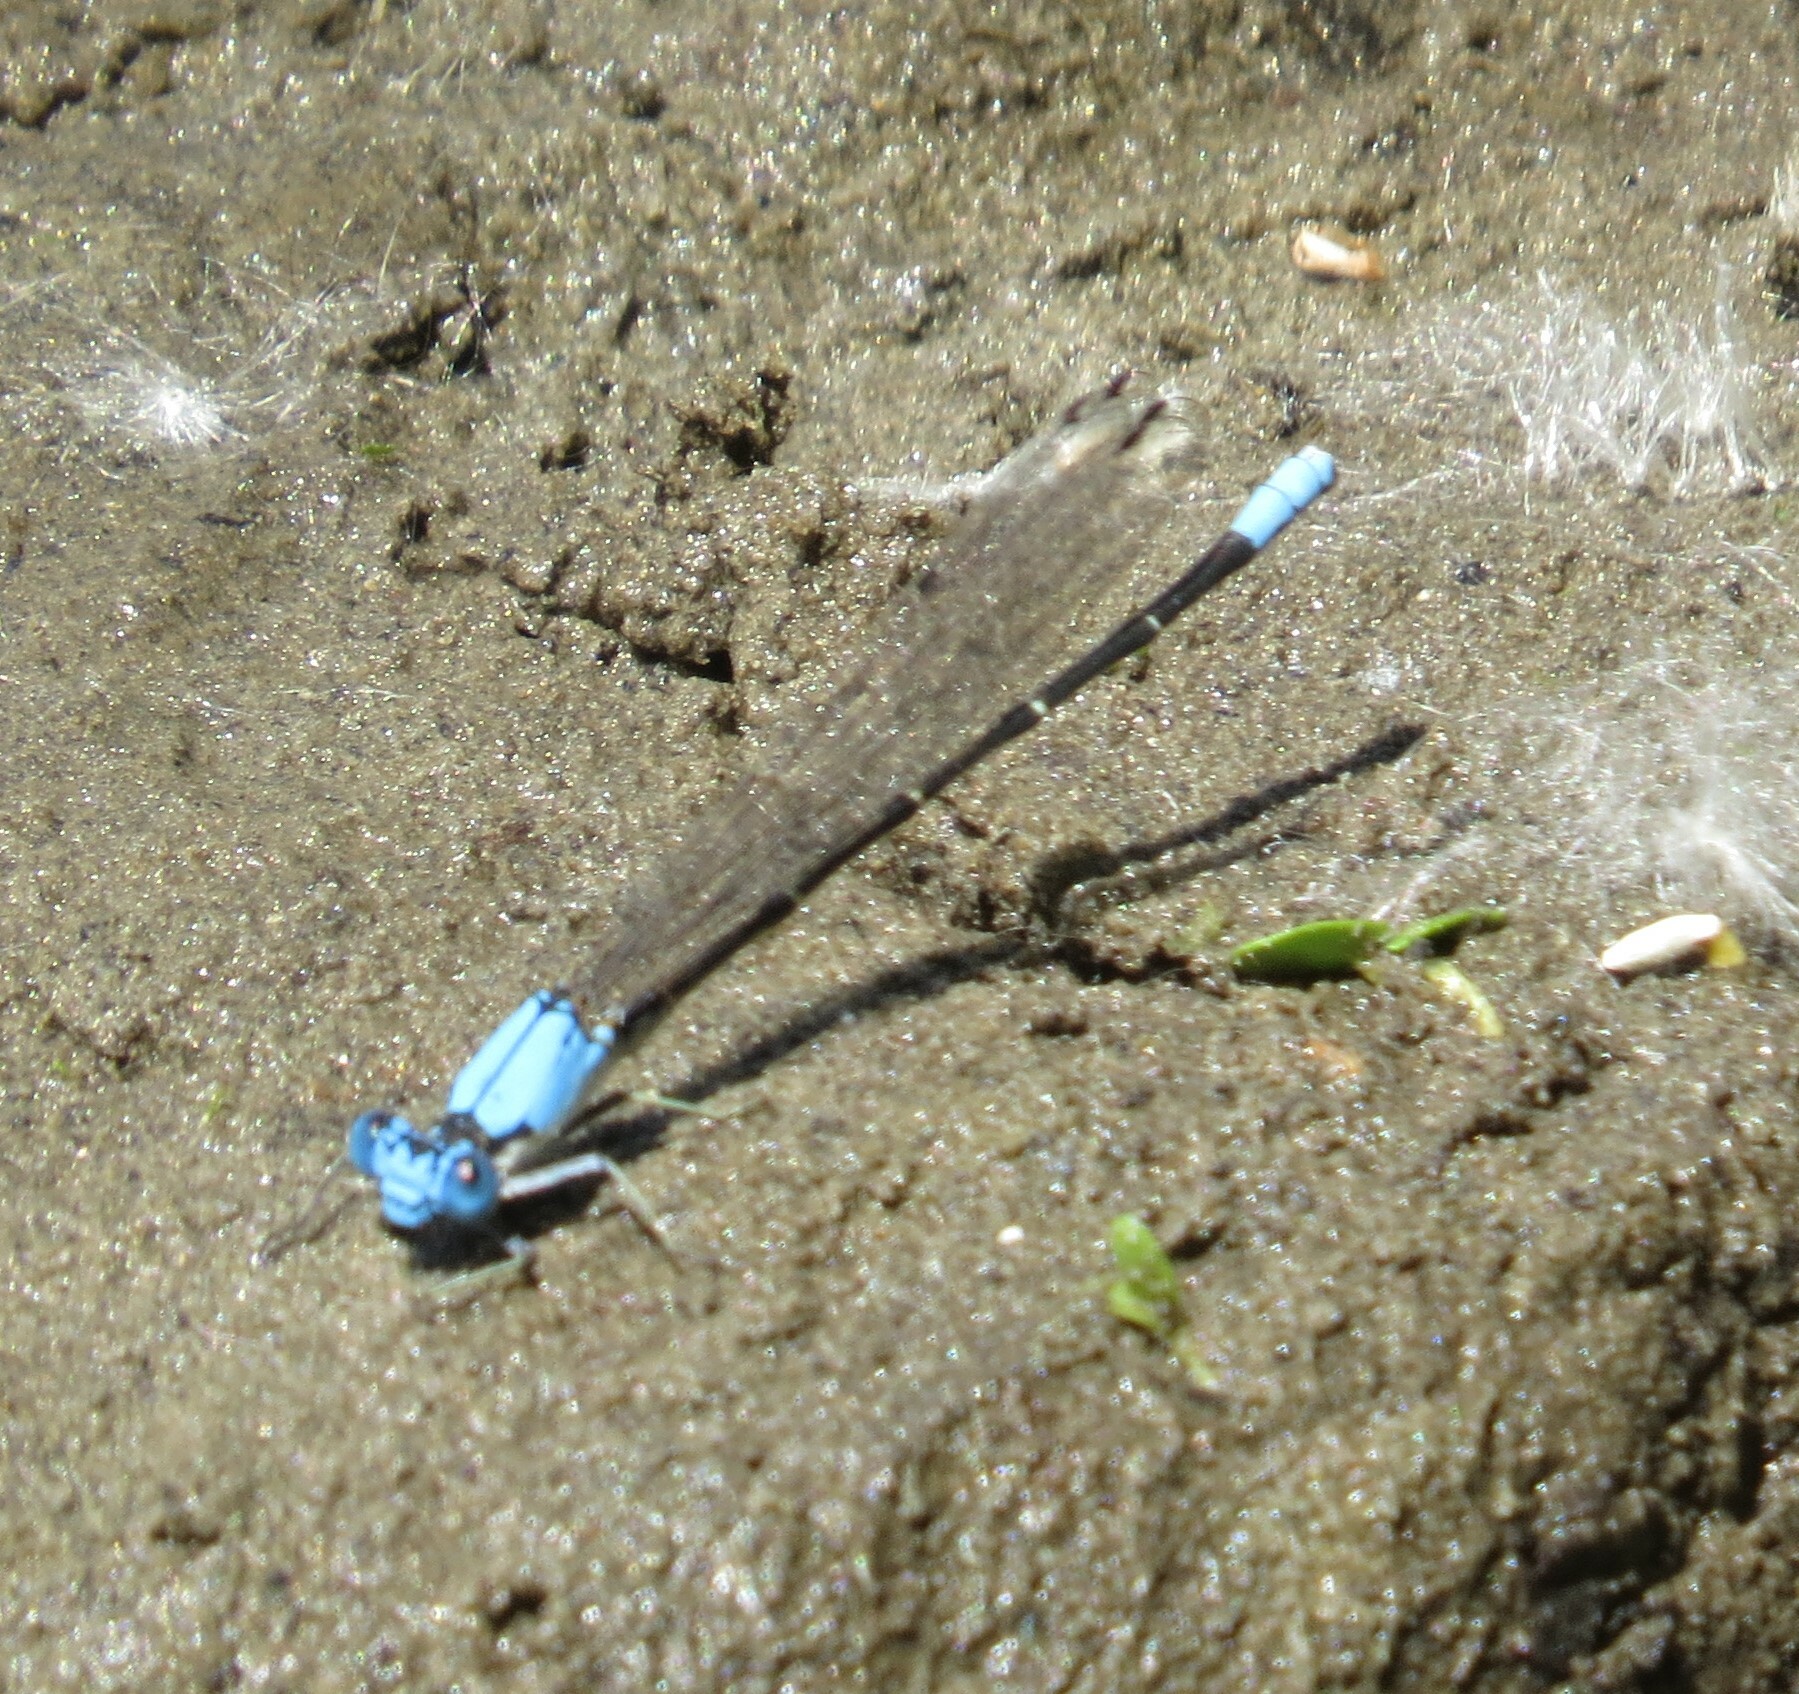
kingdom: Animalia
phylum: Arthropoda
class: Insecta
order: Odonata
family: Coenagrionidae
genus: Argia
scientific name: Argia apicalis
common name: Blue-fronted dancer
